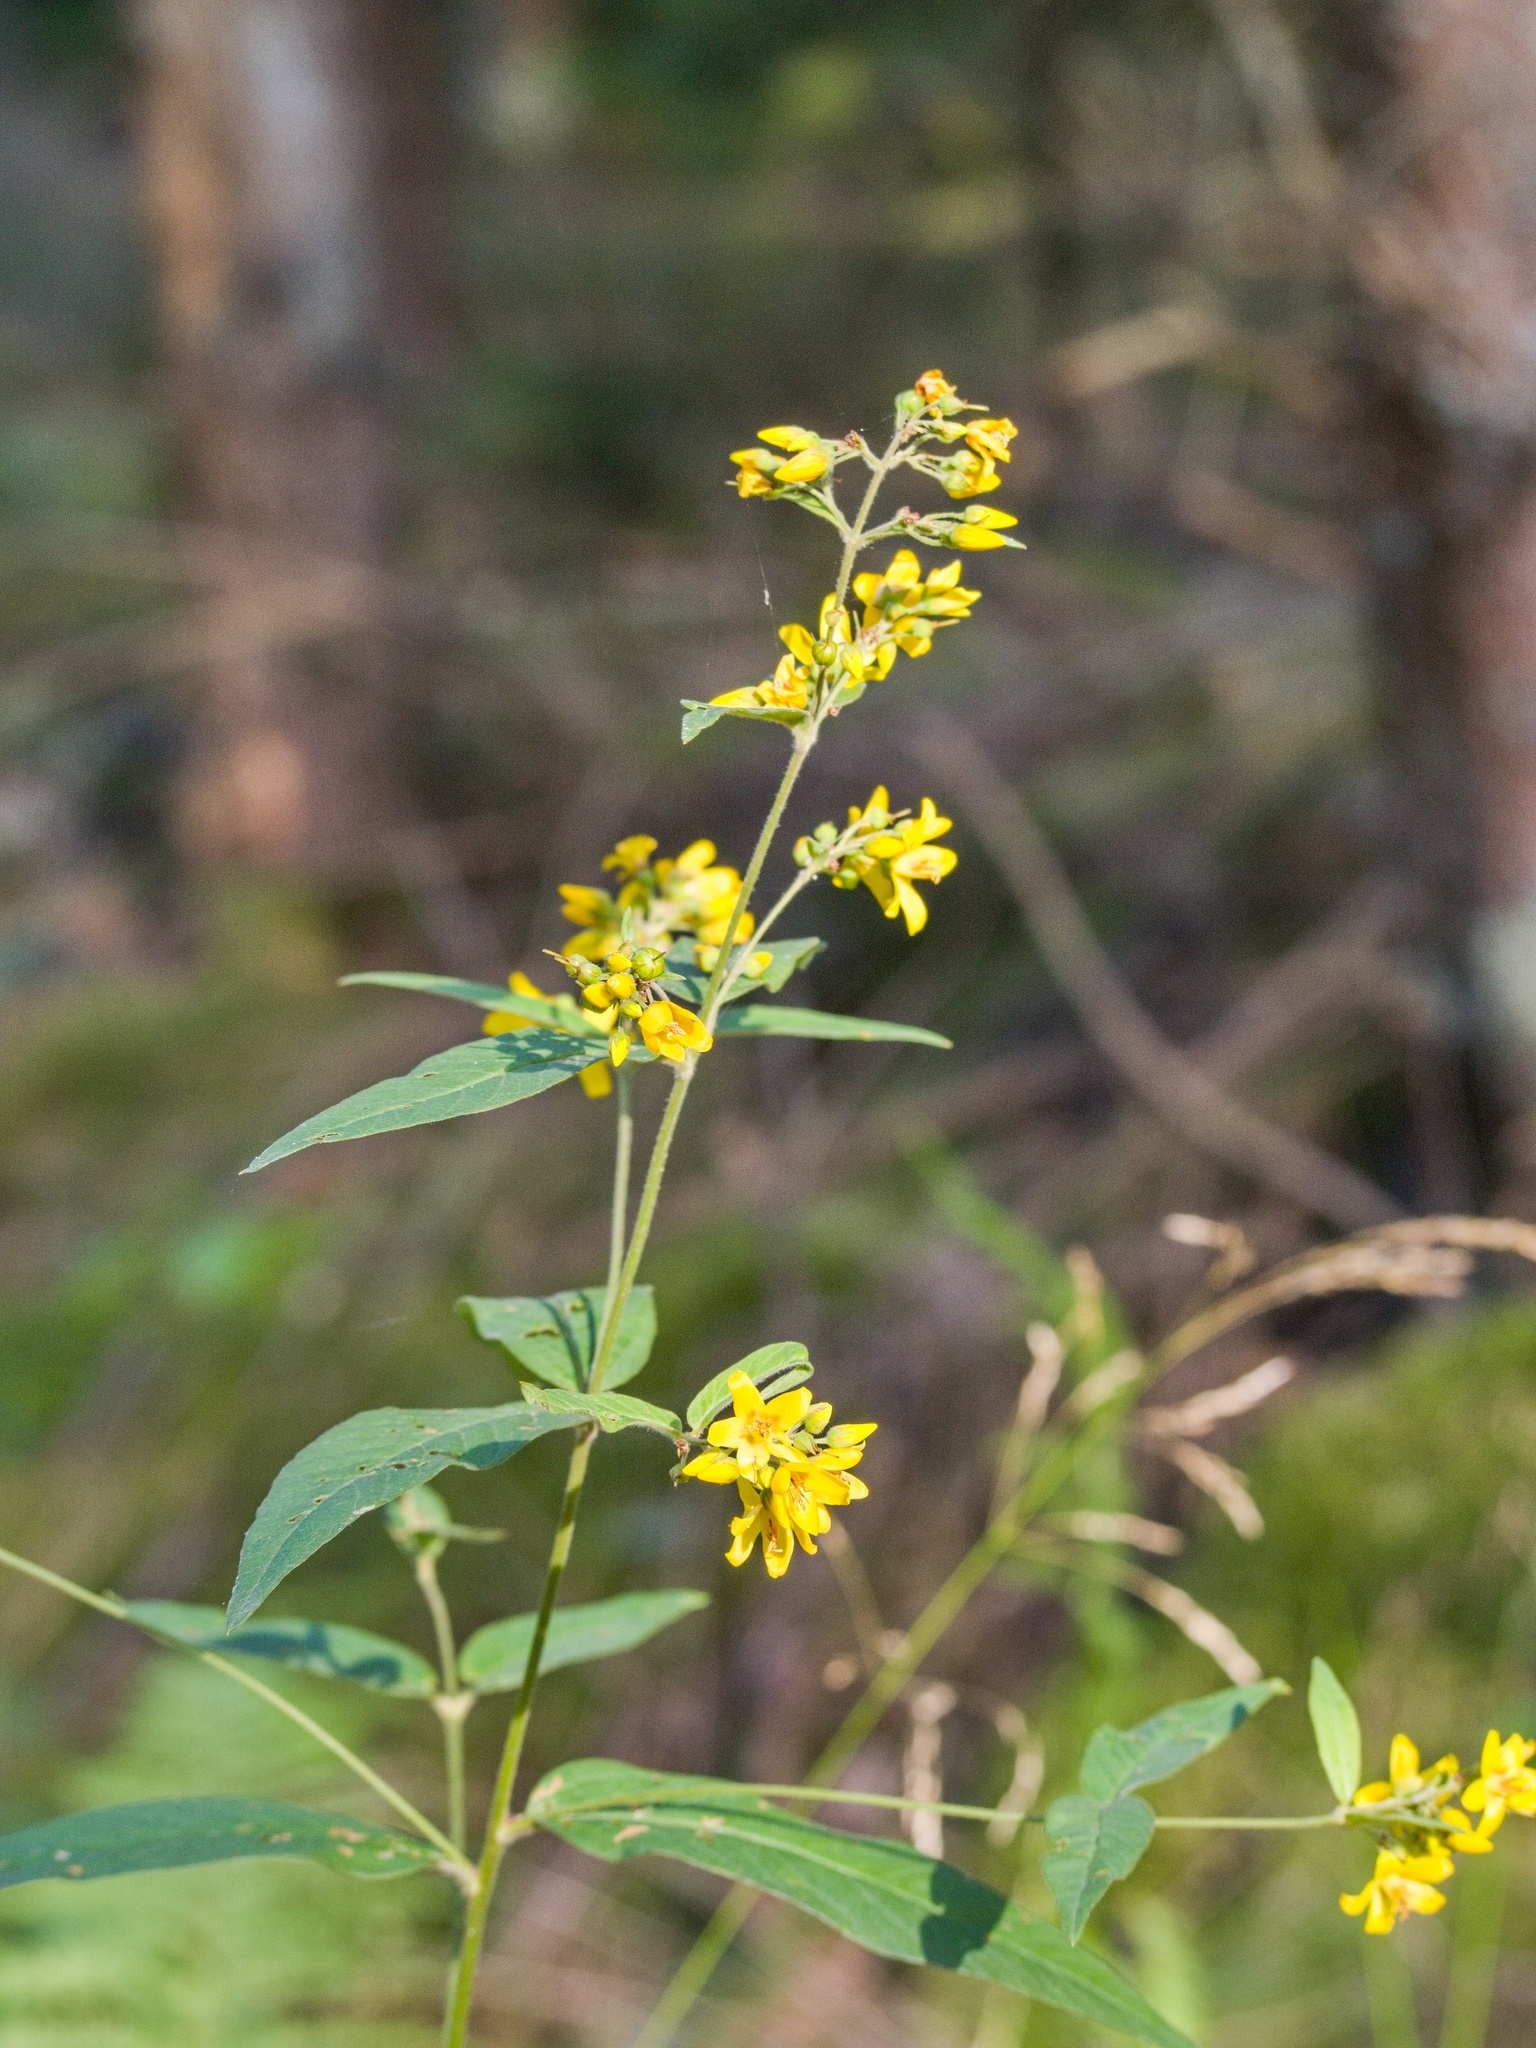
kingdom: Plantae
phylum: Tracheophyta
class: Magnoliopsida
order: Ericales
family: Primulaceae
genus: Lysimachia
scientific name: Lysimachia vulgaris
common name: Yellow loosestrife
